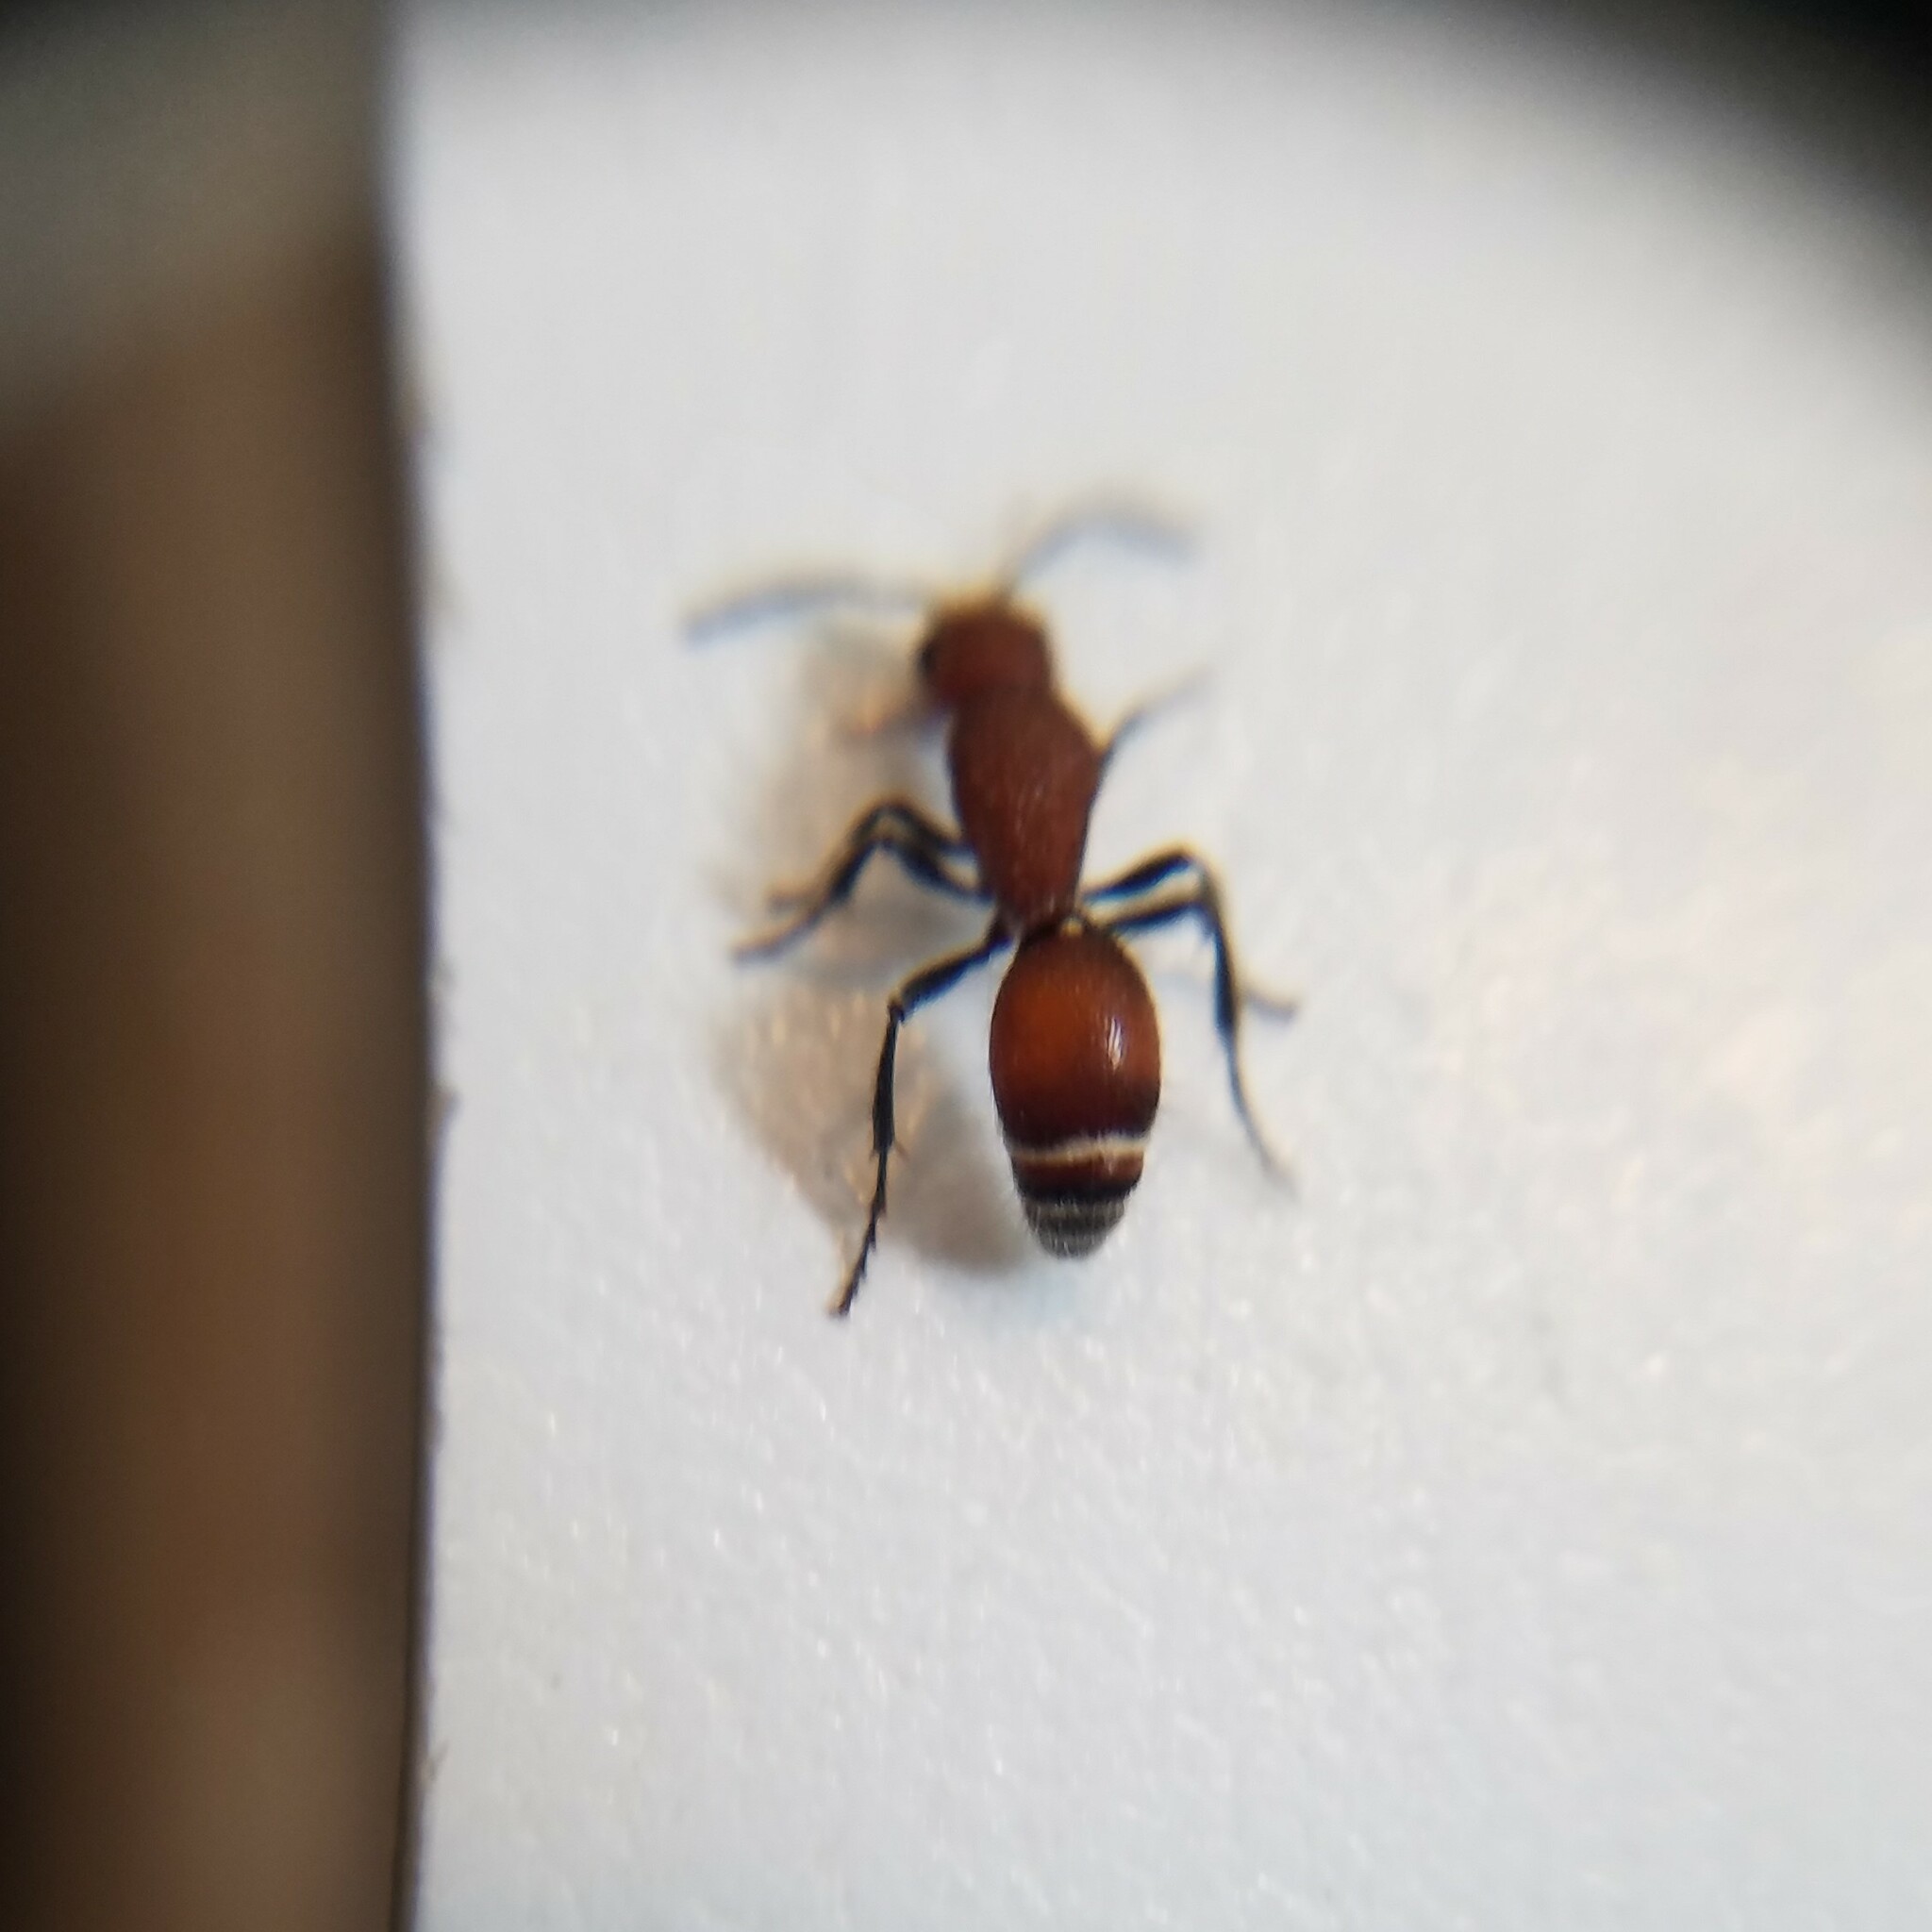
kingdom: Animalia
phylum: Arthropoda
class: Insecta
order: Hymenoptera
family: Mutillidae
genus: Sphaeropthalma
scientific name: Sphaeropthalma
